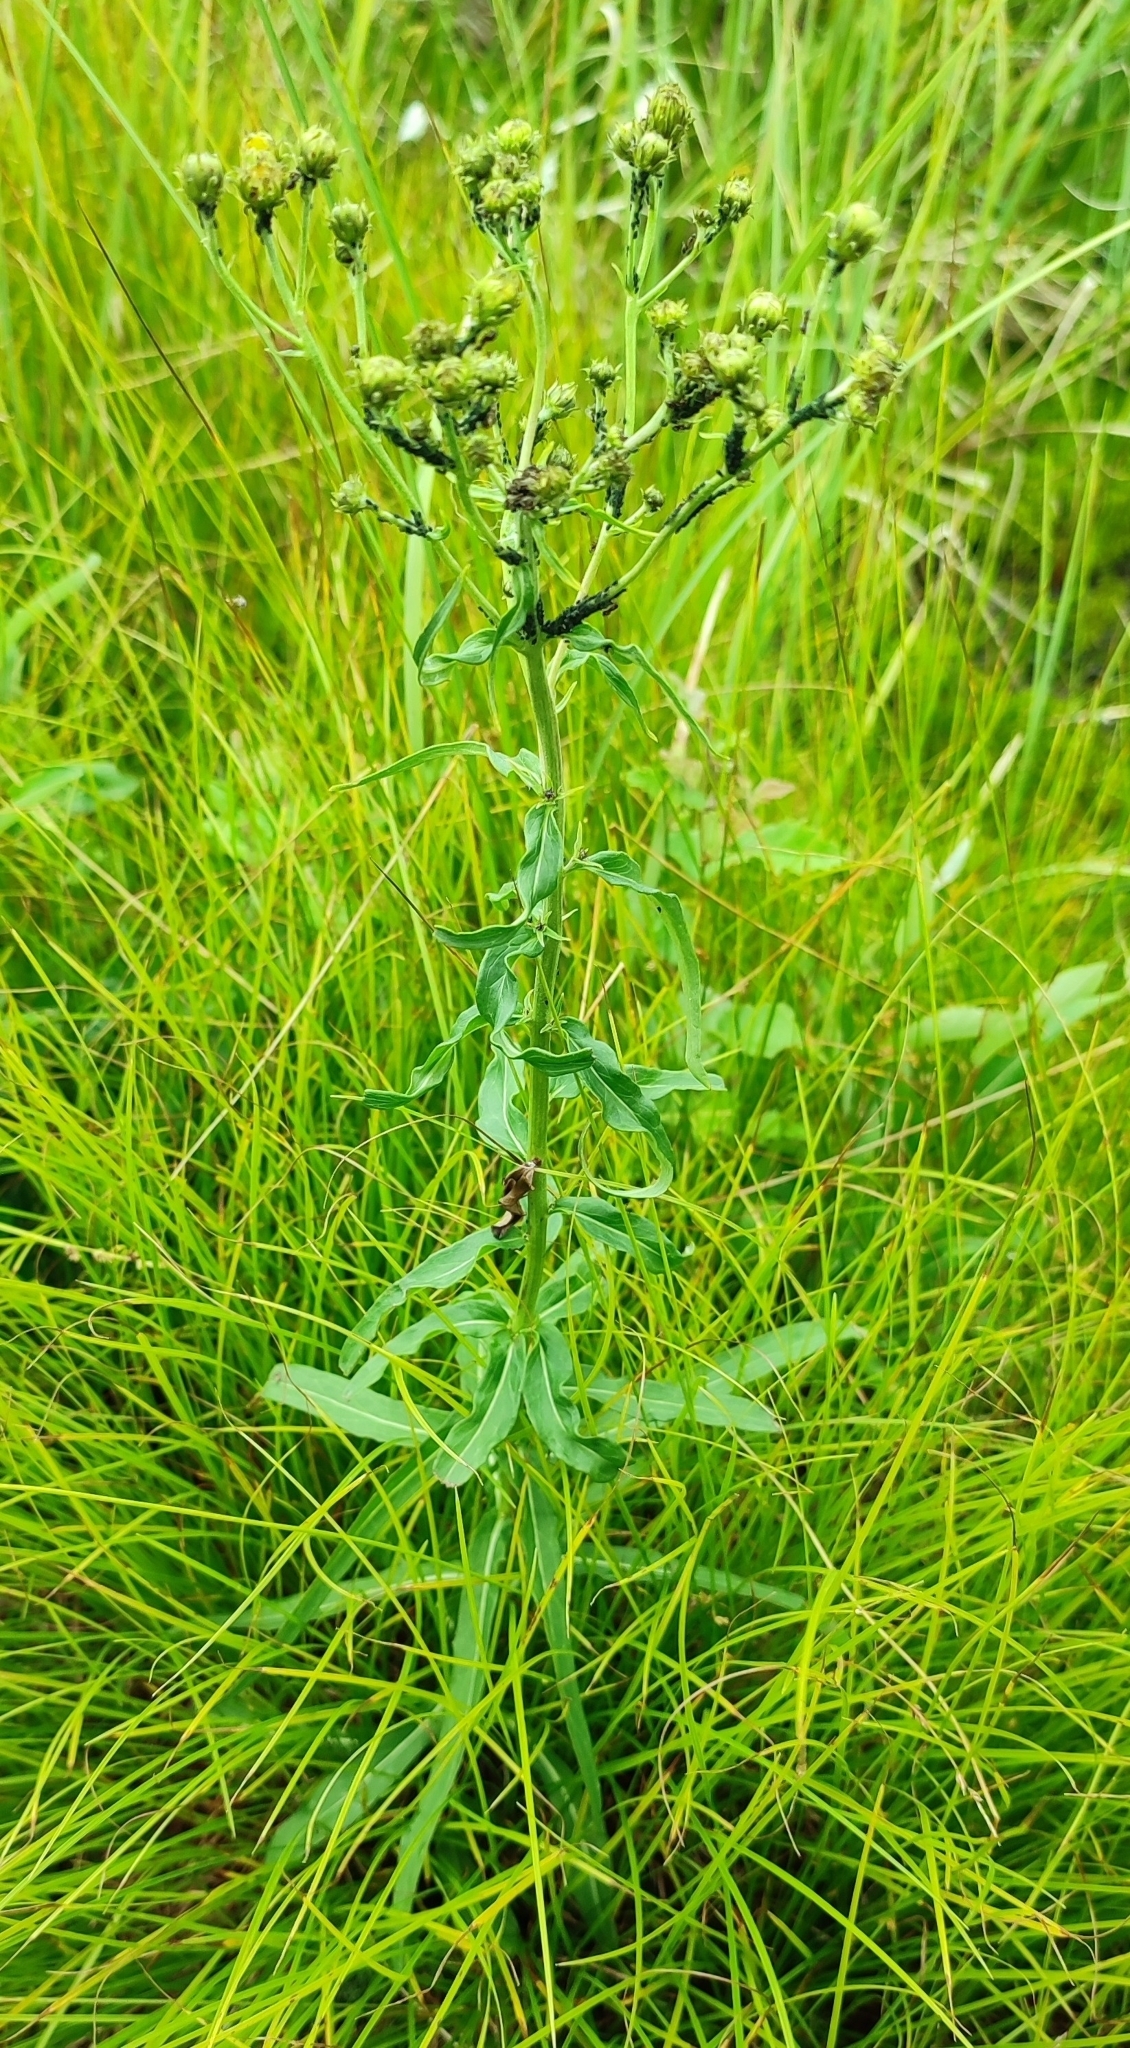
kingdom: Plantae
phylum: Tracheophyta
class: Magnoliopsida
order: Asterales
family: Asteraceae
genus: Hieracium
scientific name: Hieracium umbellatum
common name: Northern hawkweed
